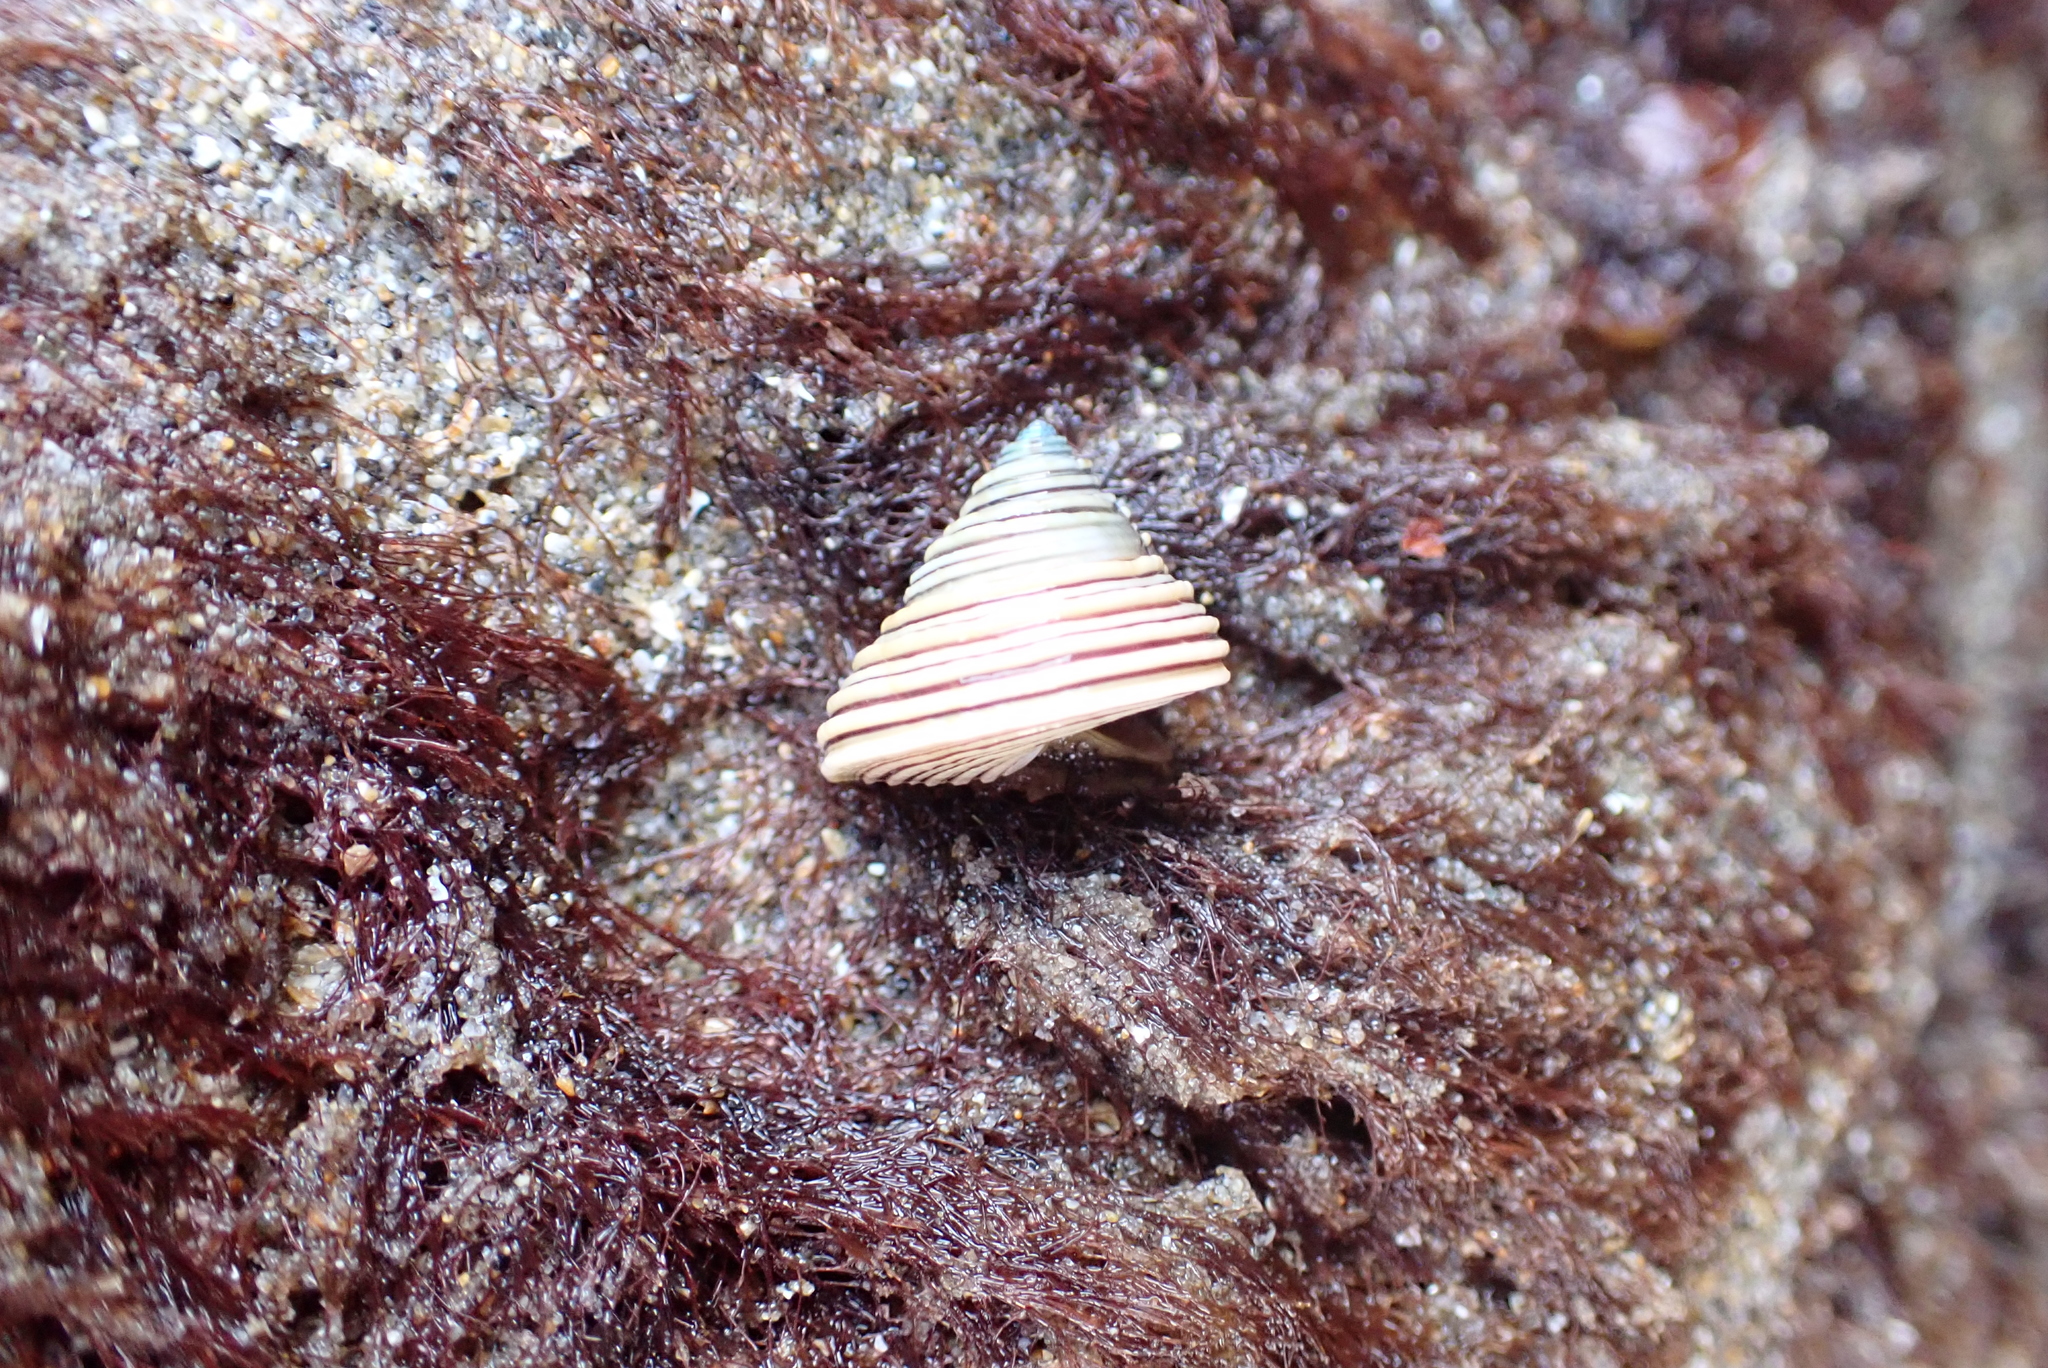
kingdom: Animalia
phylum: Mollusca
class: Gastropoda
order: Trochida
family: Calliostomatidae
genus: Calliostoma
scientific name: Calliostoma canaliculatum
